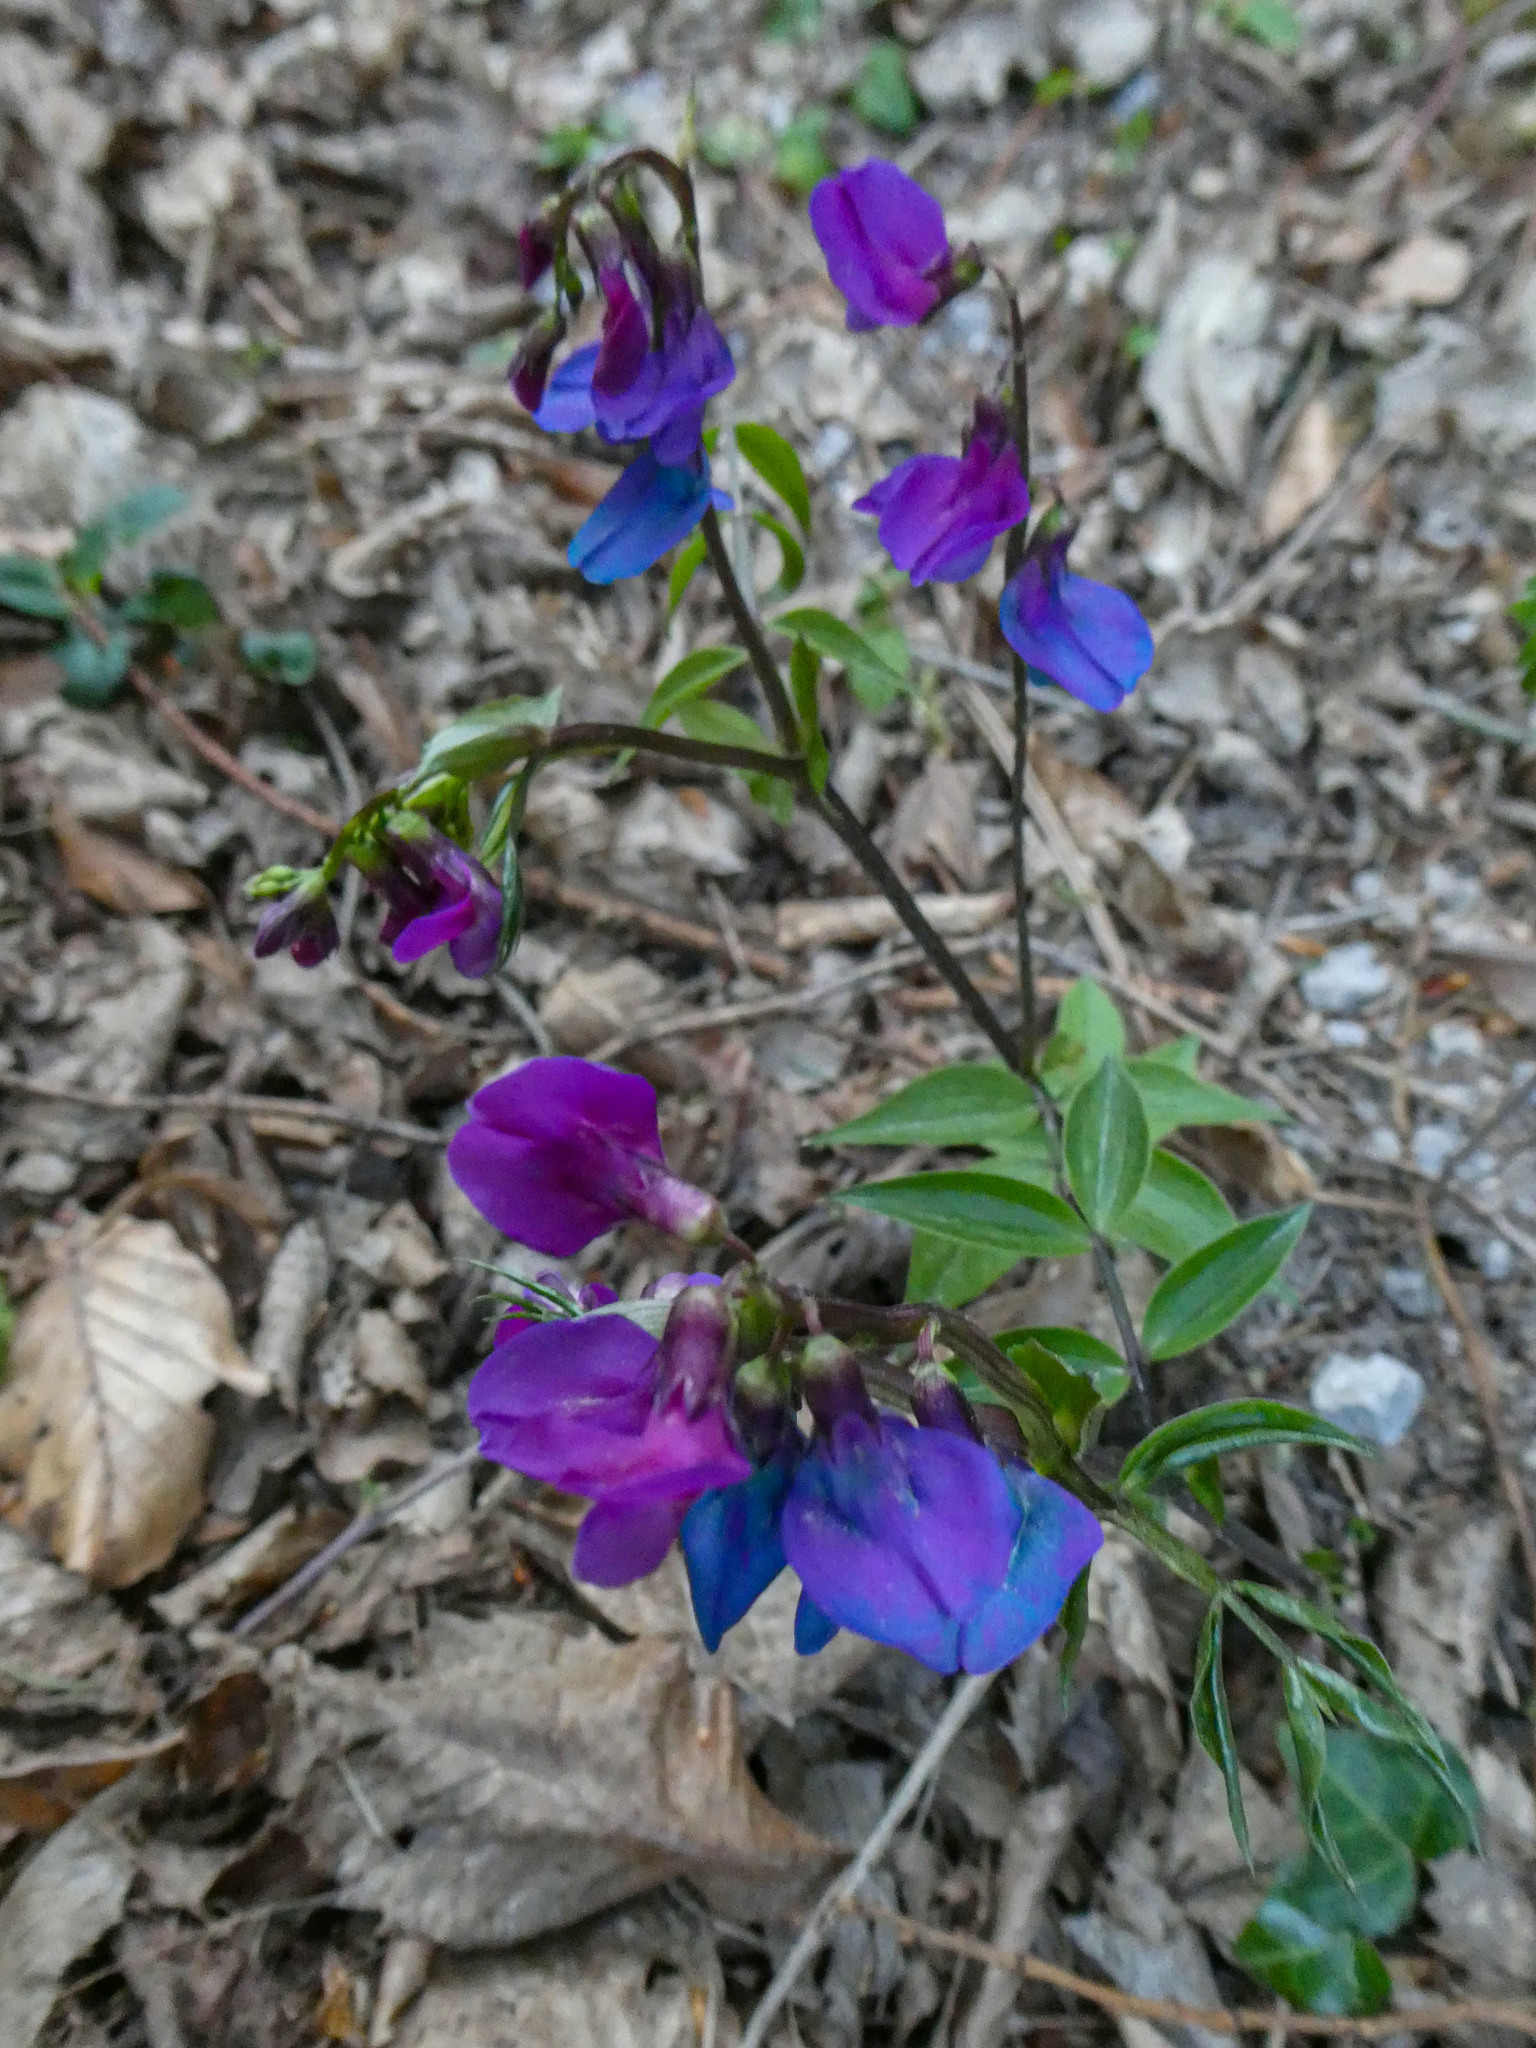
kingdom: Plantae
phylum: Tracheophyta
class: Magnoliopsida
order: Fabales
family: Fabaceae
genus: Lathyrus
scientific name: Lathyrus vernus
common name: Spring pea
